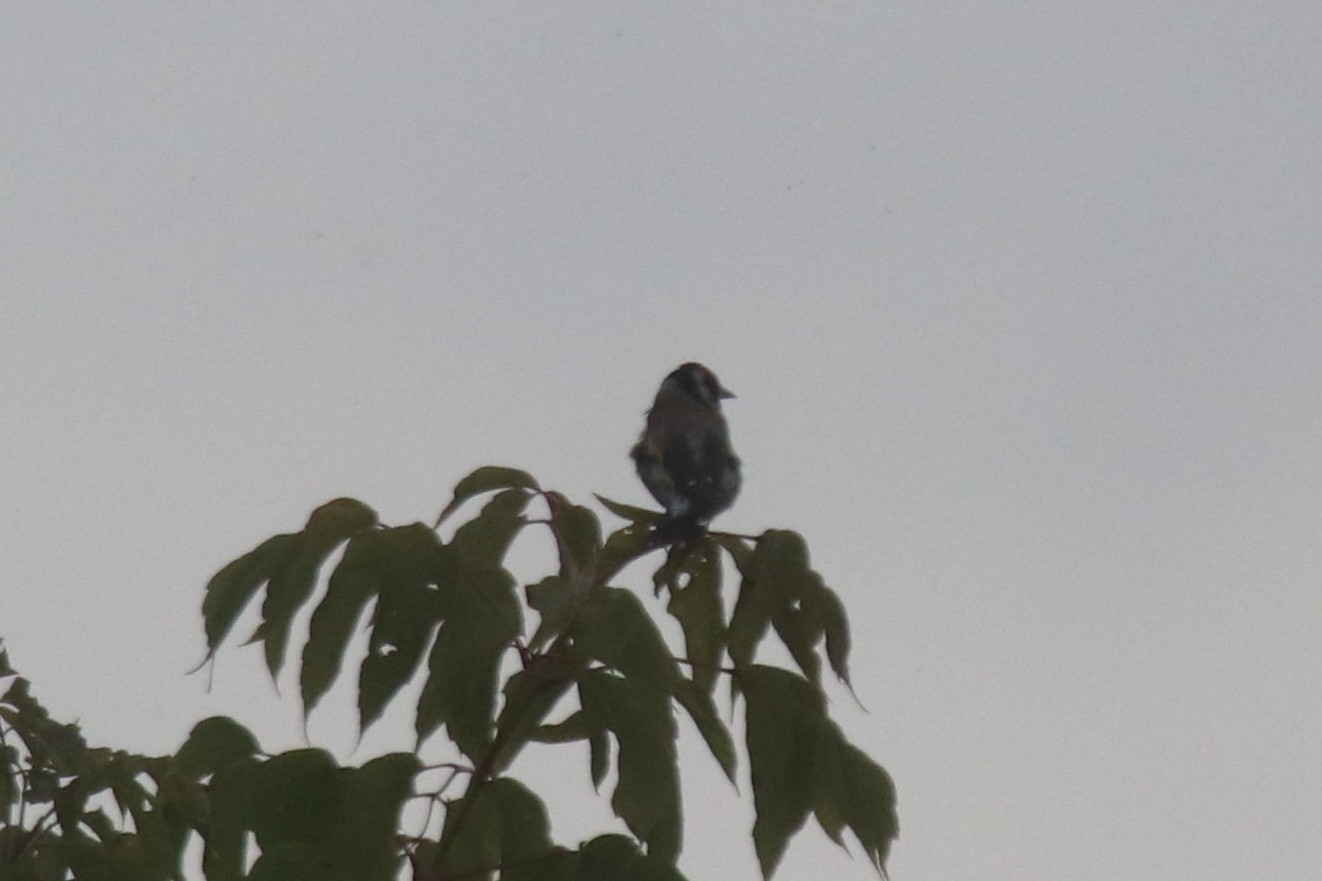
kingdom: Animalia
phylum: Chordata
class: Aves
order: Passeriformes
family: Fringillidae
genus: Carduelis
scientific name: Carduelis carduelis
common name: European goldfinch
